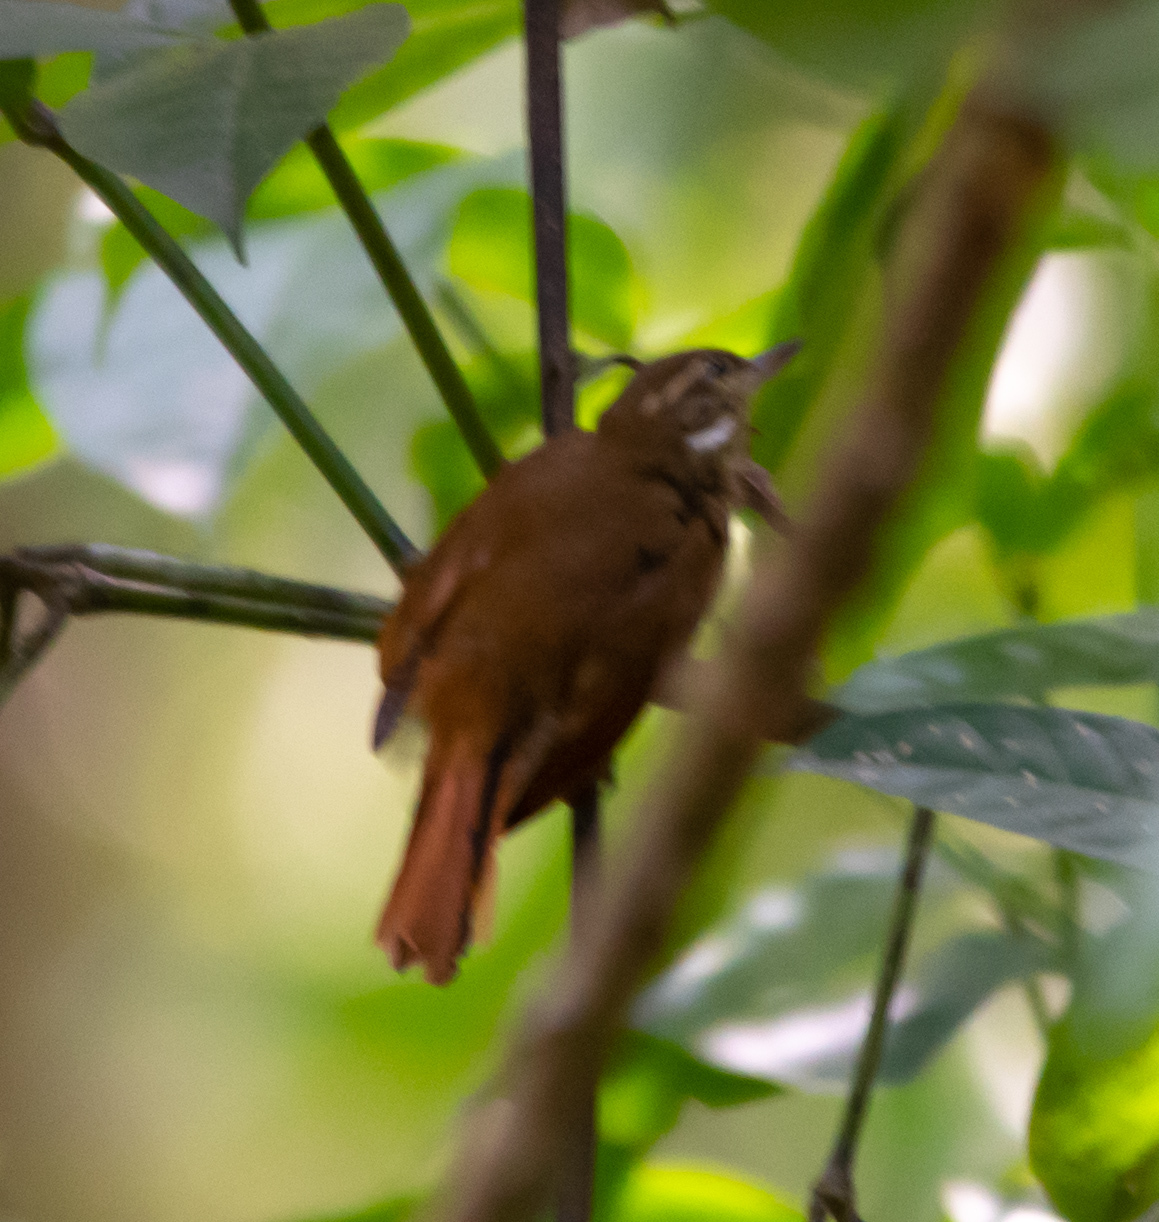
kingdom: Animalia
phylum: Chordata
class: Aves
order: Passeriformes
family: Furnariidae
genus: Xenops
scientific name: Xenops minutus
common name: Plain xenops
